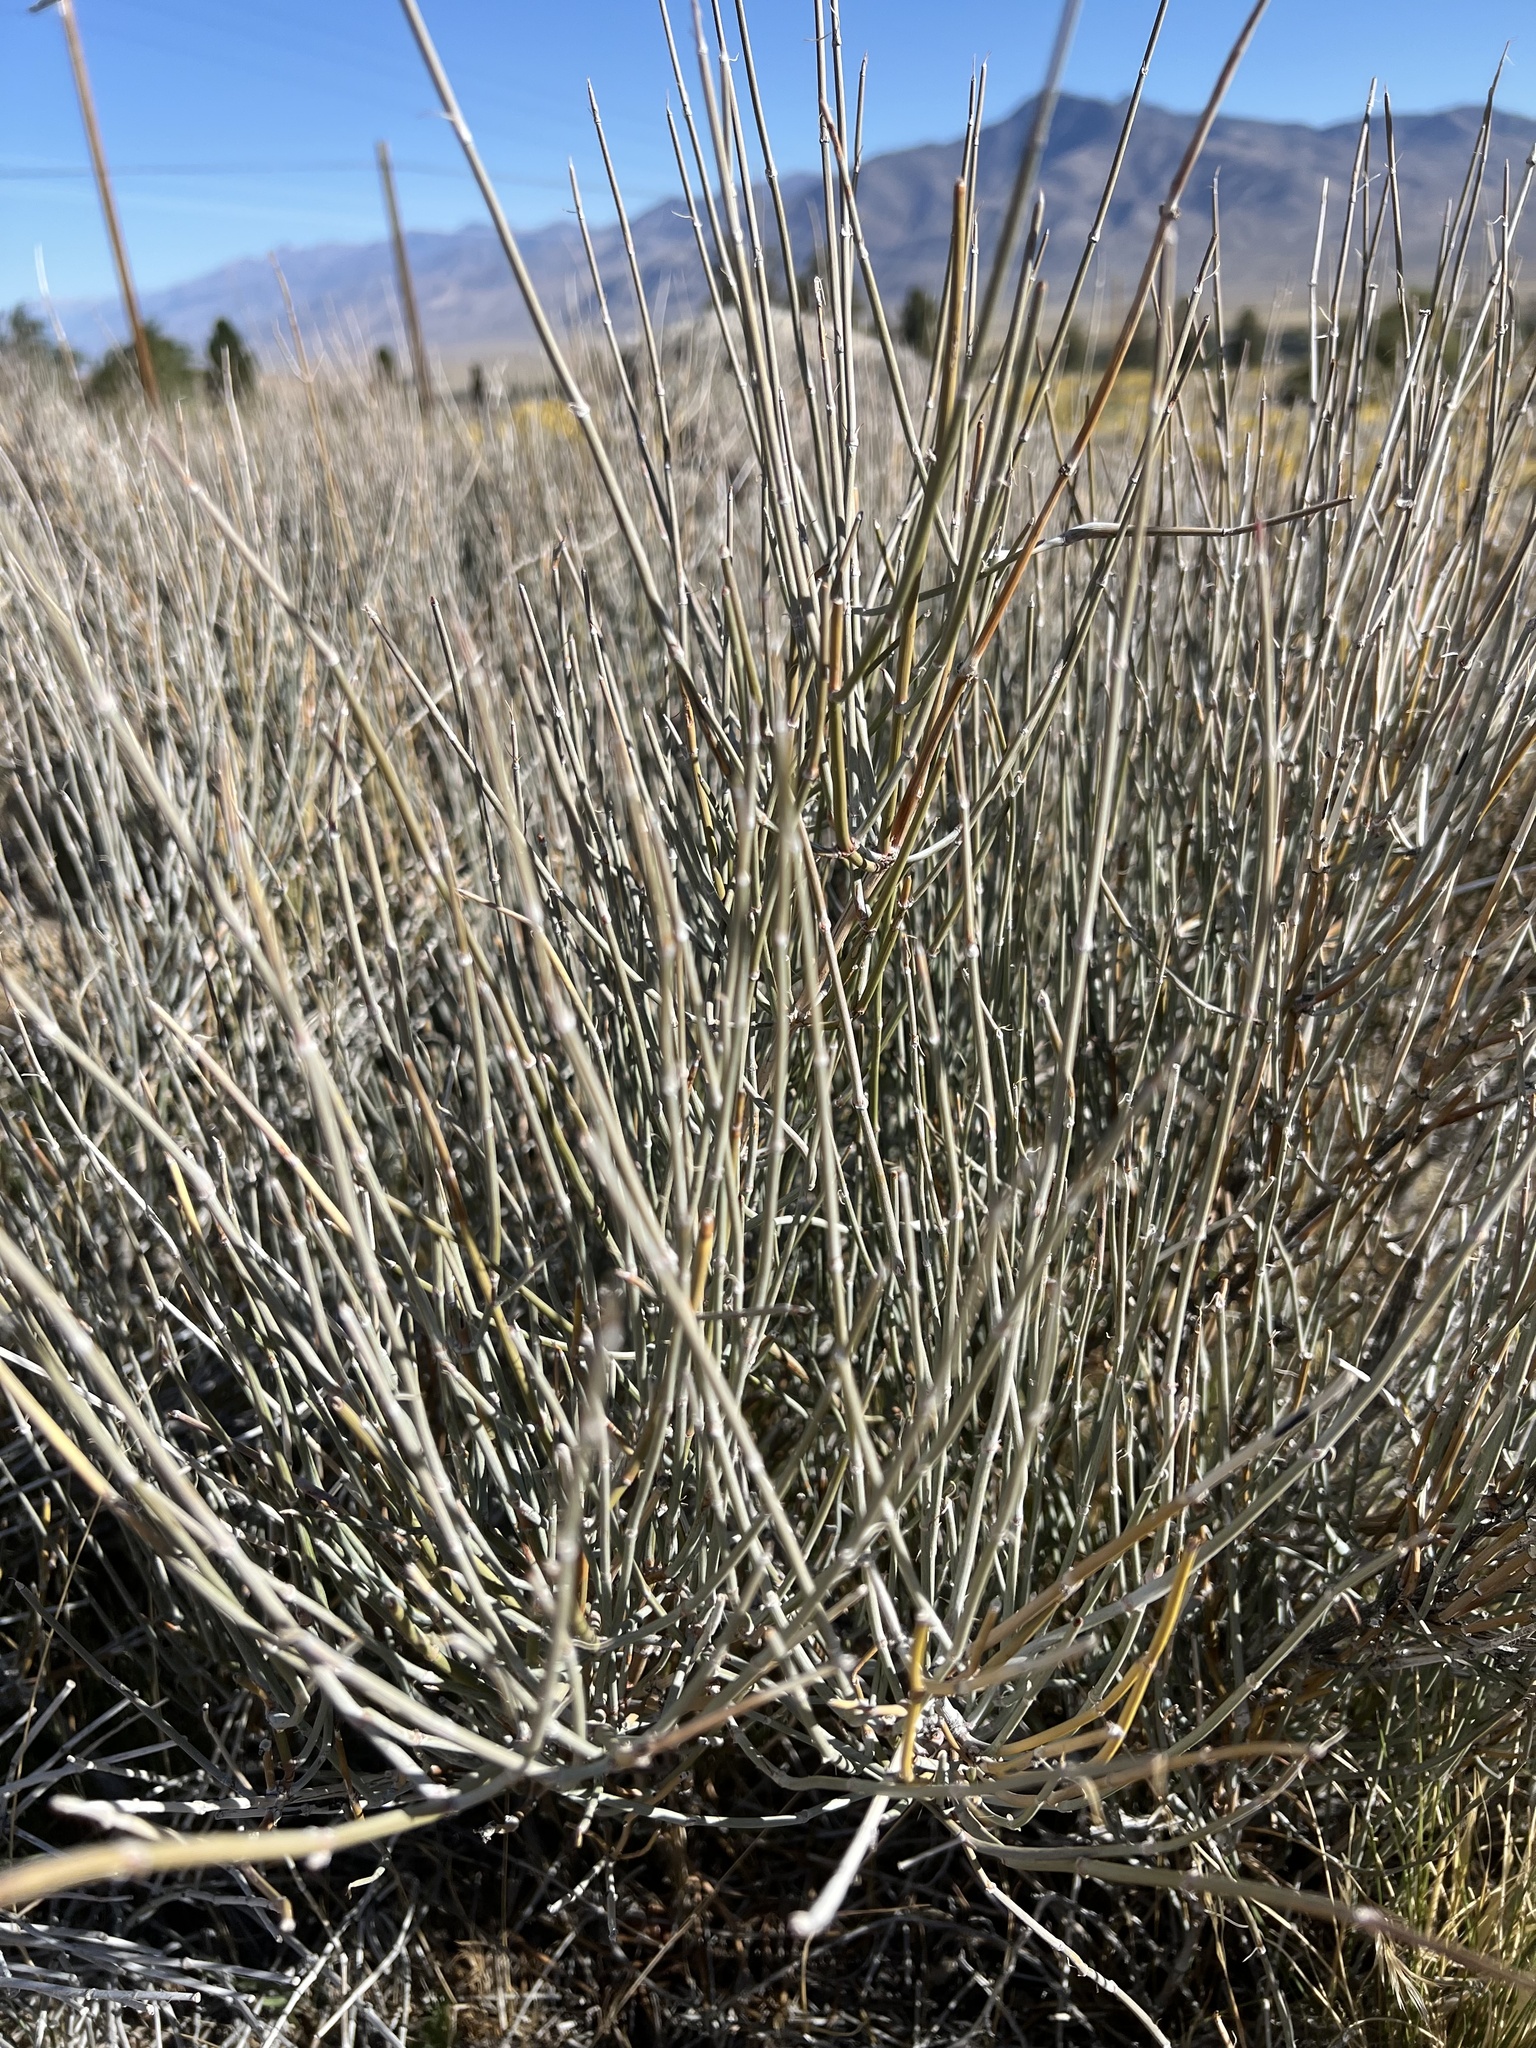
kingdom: Plantae
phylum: Tracheophyta
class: Gnetopsida
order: Ephedrales
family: Ephedraceae
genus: Ephedra
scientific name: Ephedra nevadensis
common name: Gray ephedra
